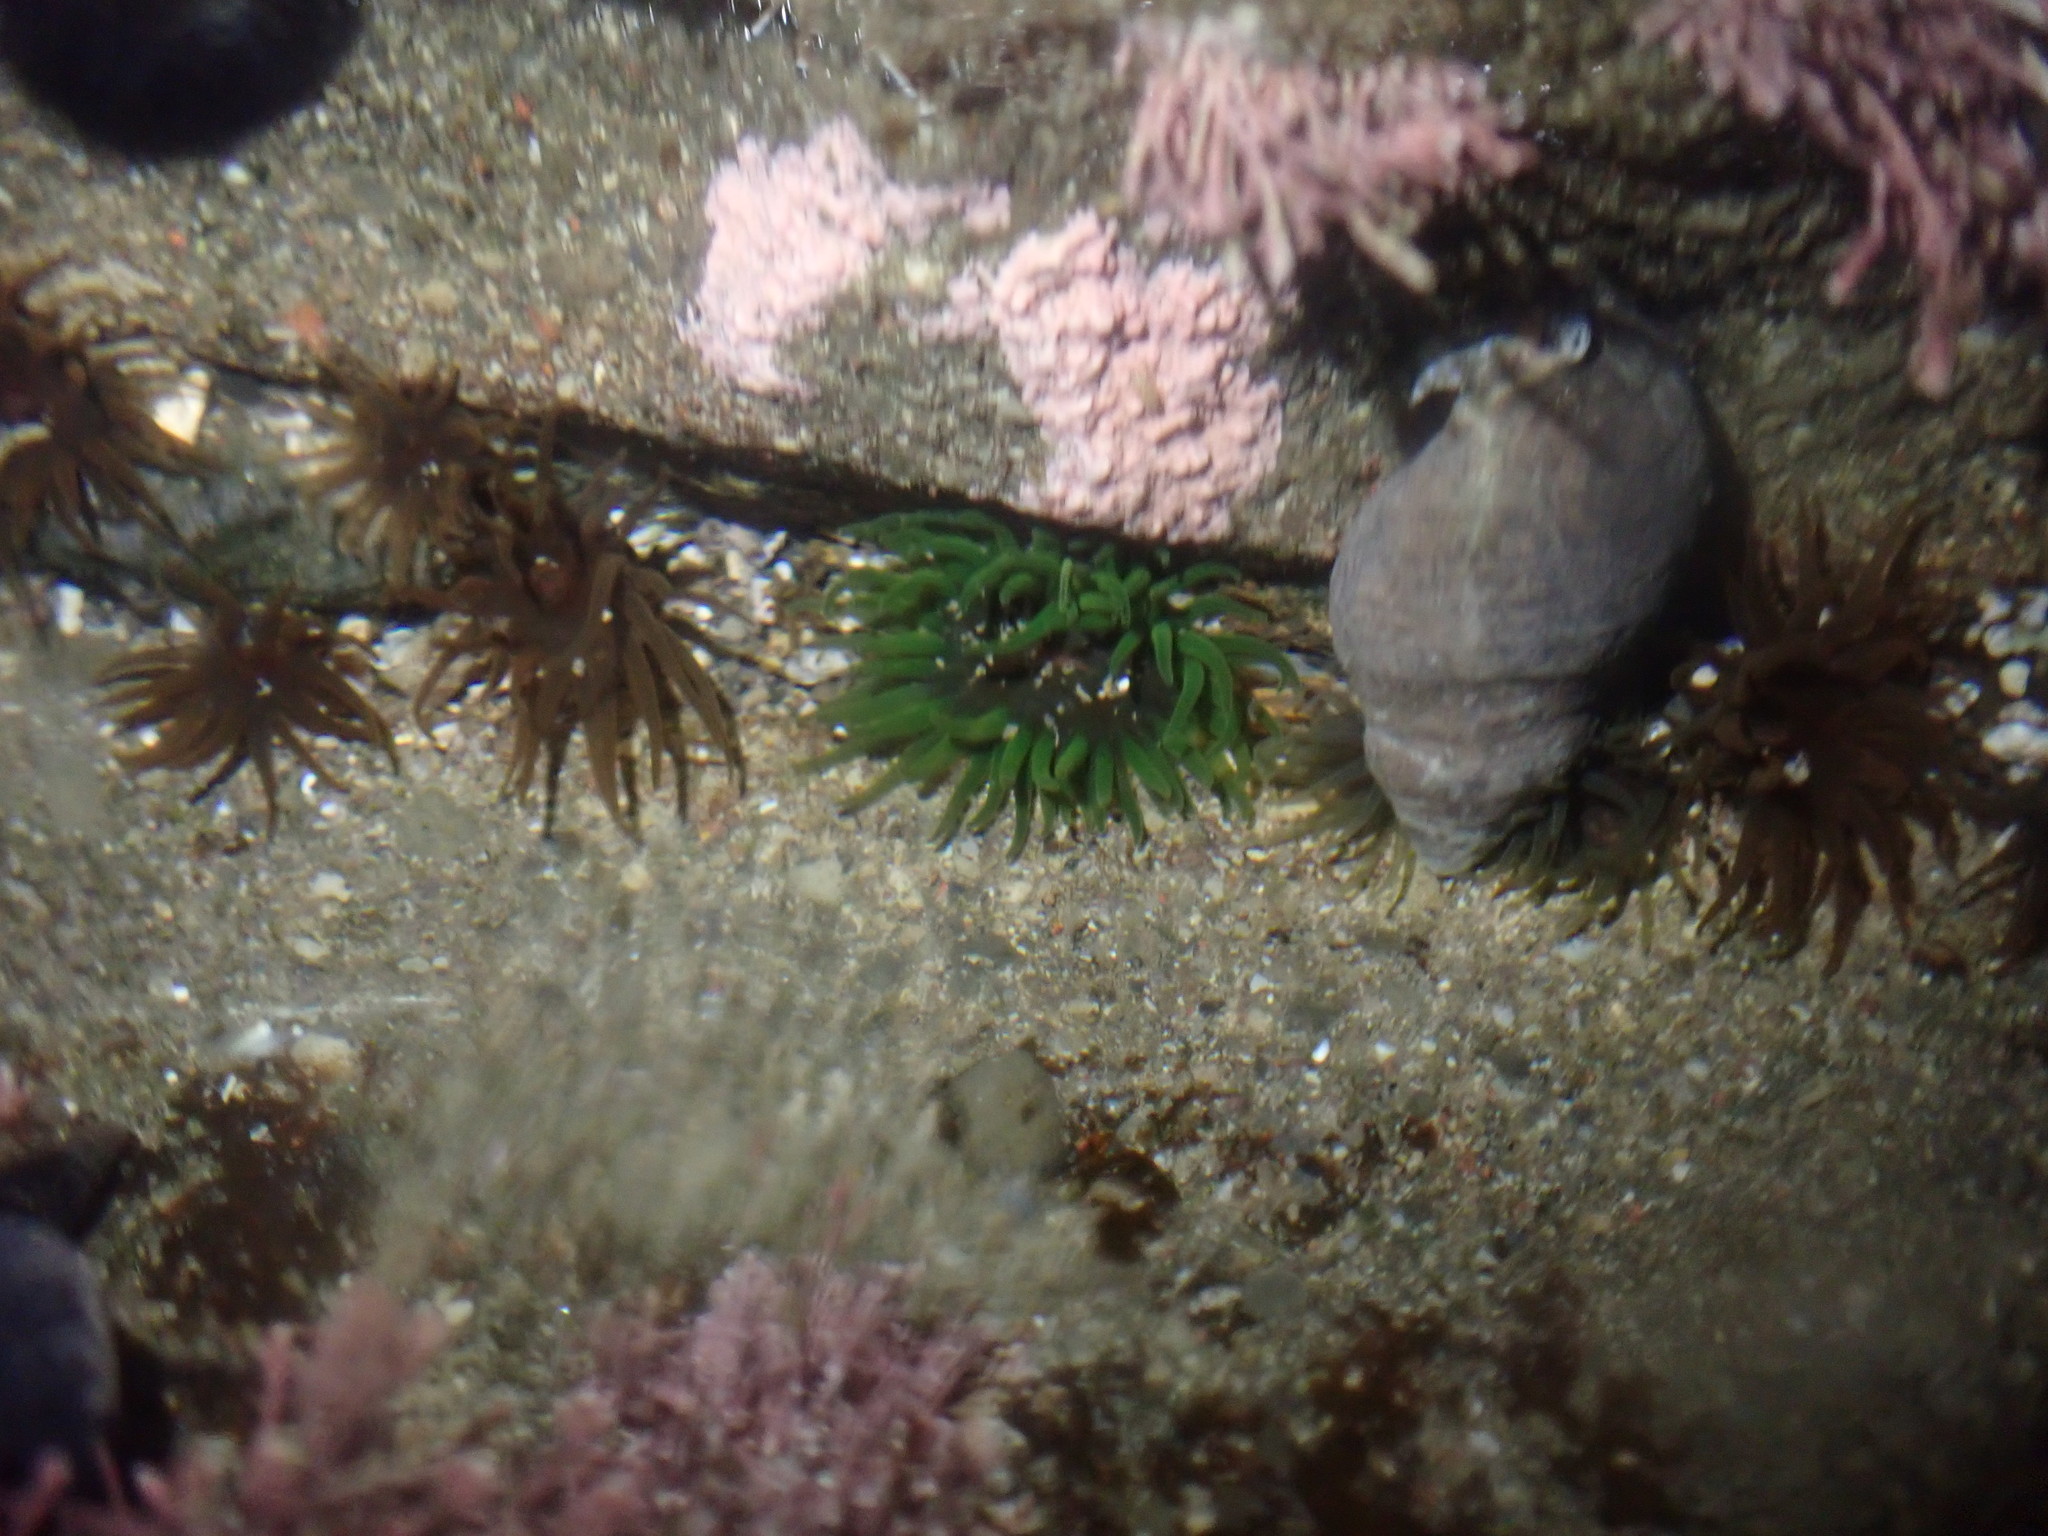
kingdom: Animalia
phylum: Cnidaria
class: Anthozoa
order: Actiniaria
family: Actiniidae
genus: Aulactinia
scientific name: Aulactinia veratra
